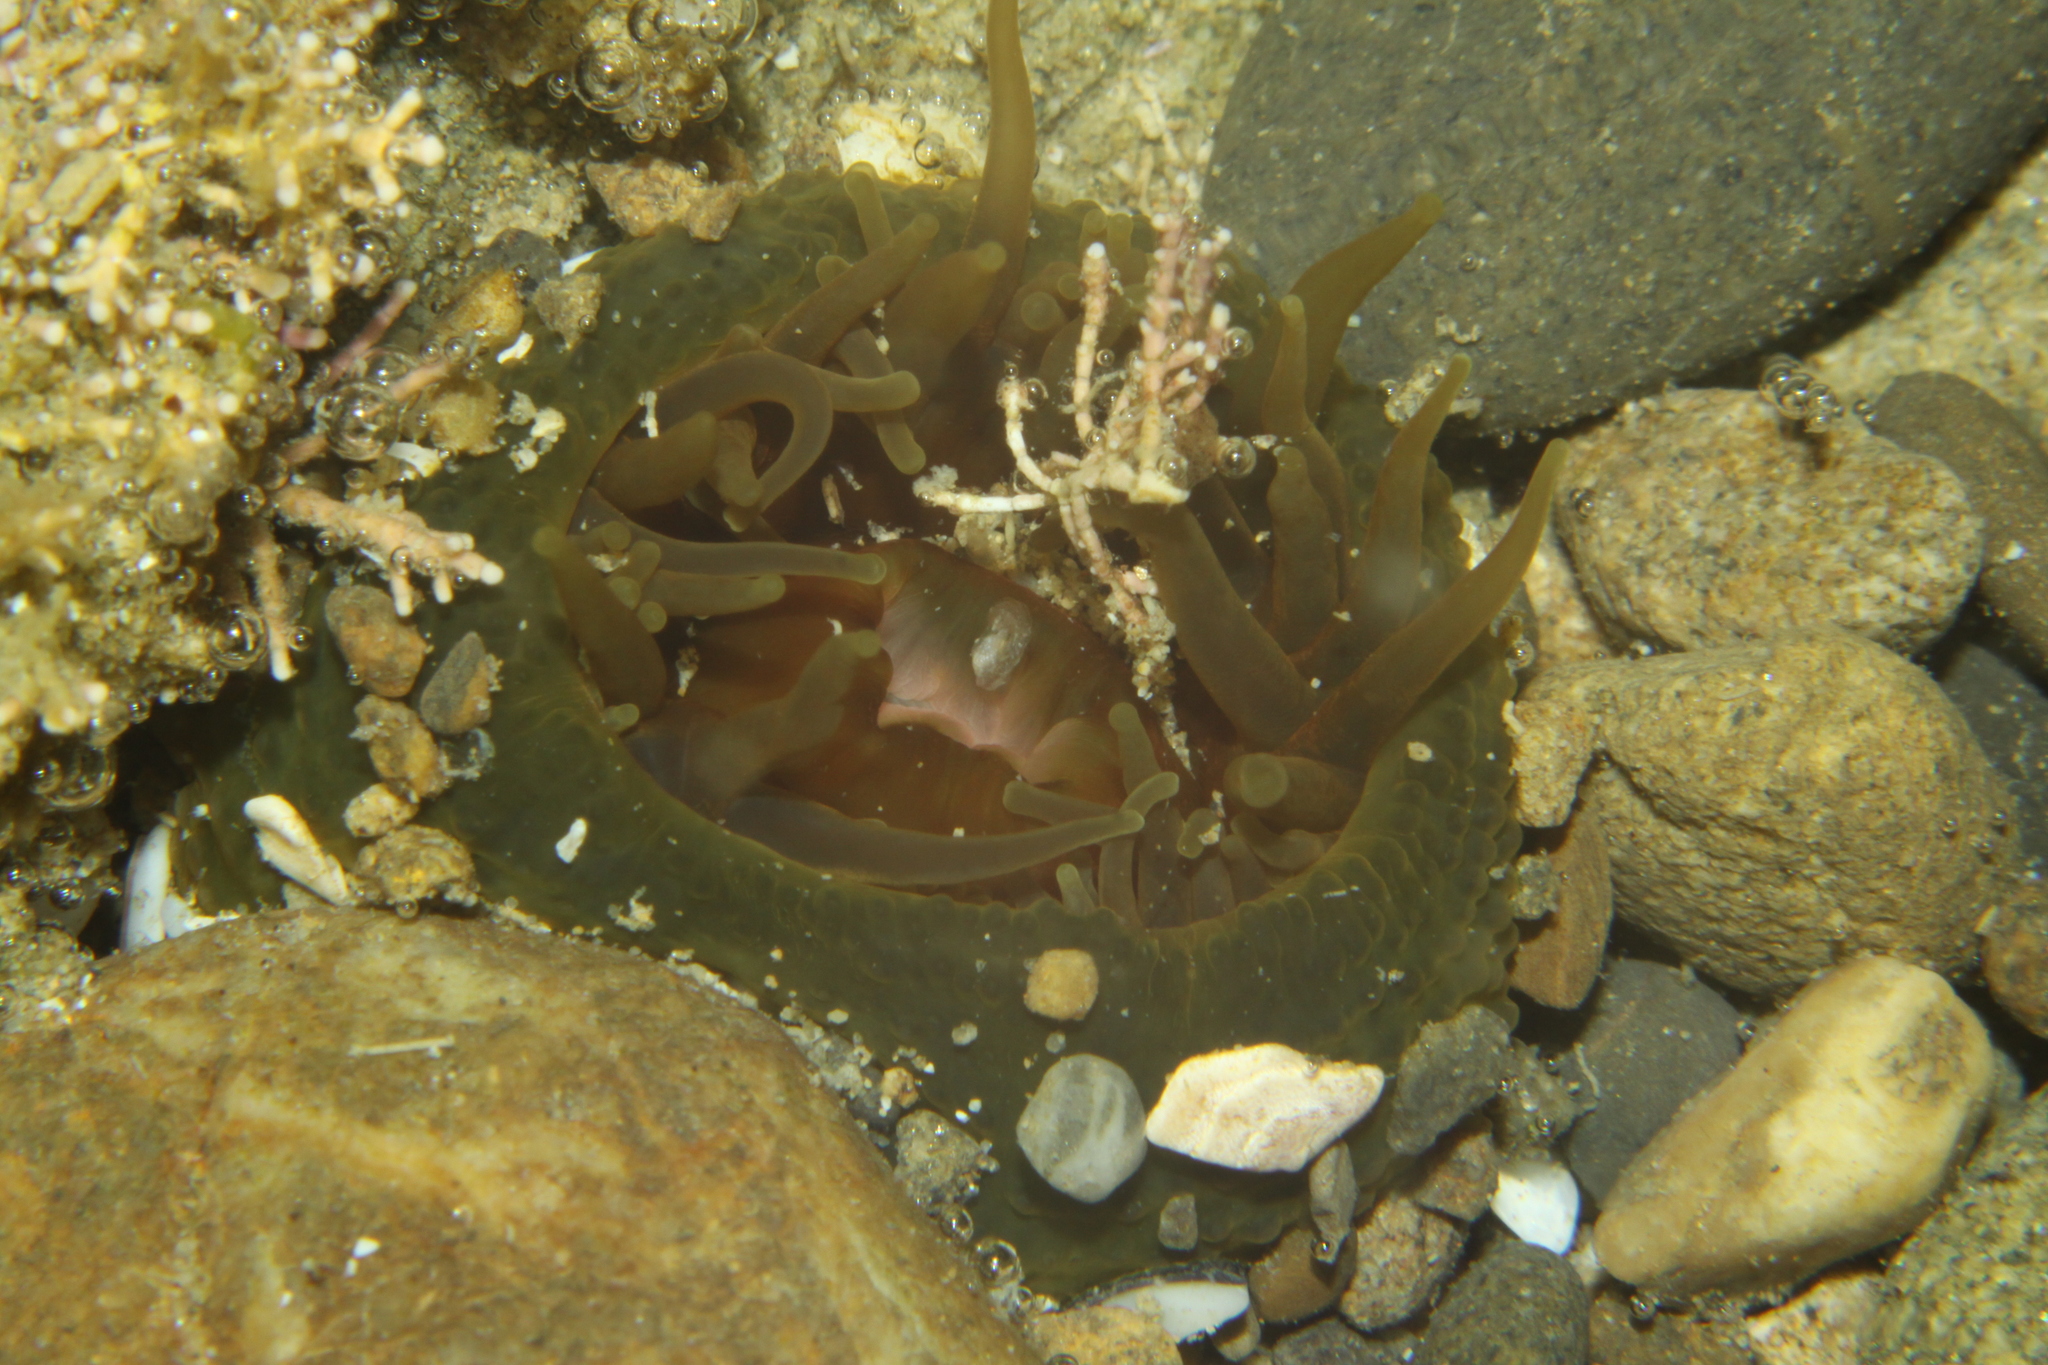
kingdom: Animalia
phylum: Cnidaria
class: Anthozoa
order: Actiniaria
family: Actiniidae
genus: Isactinia
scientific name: Isactinia olivacea
